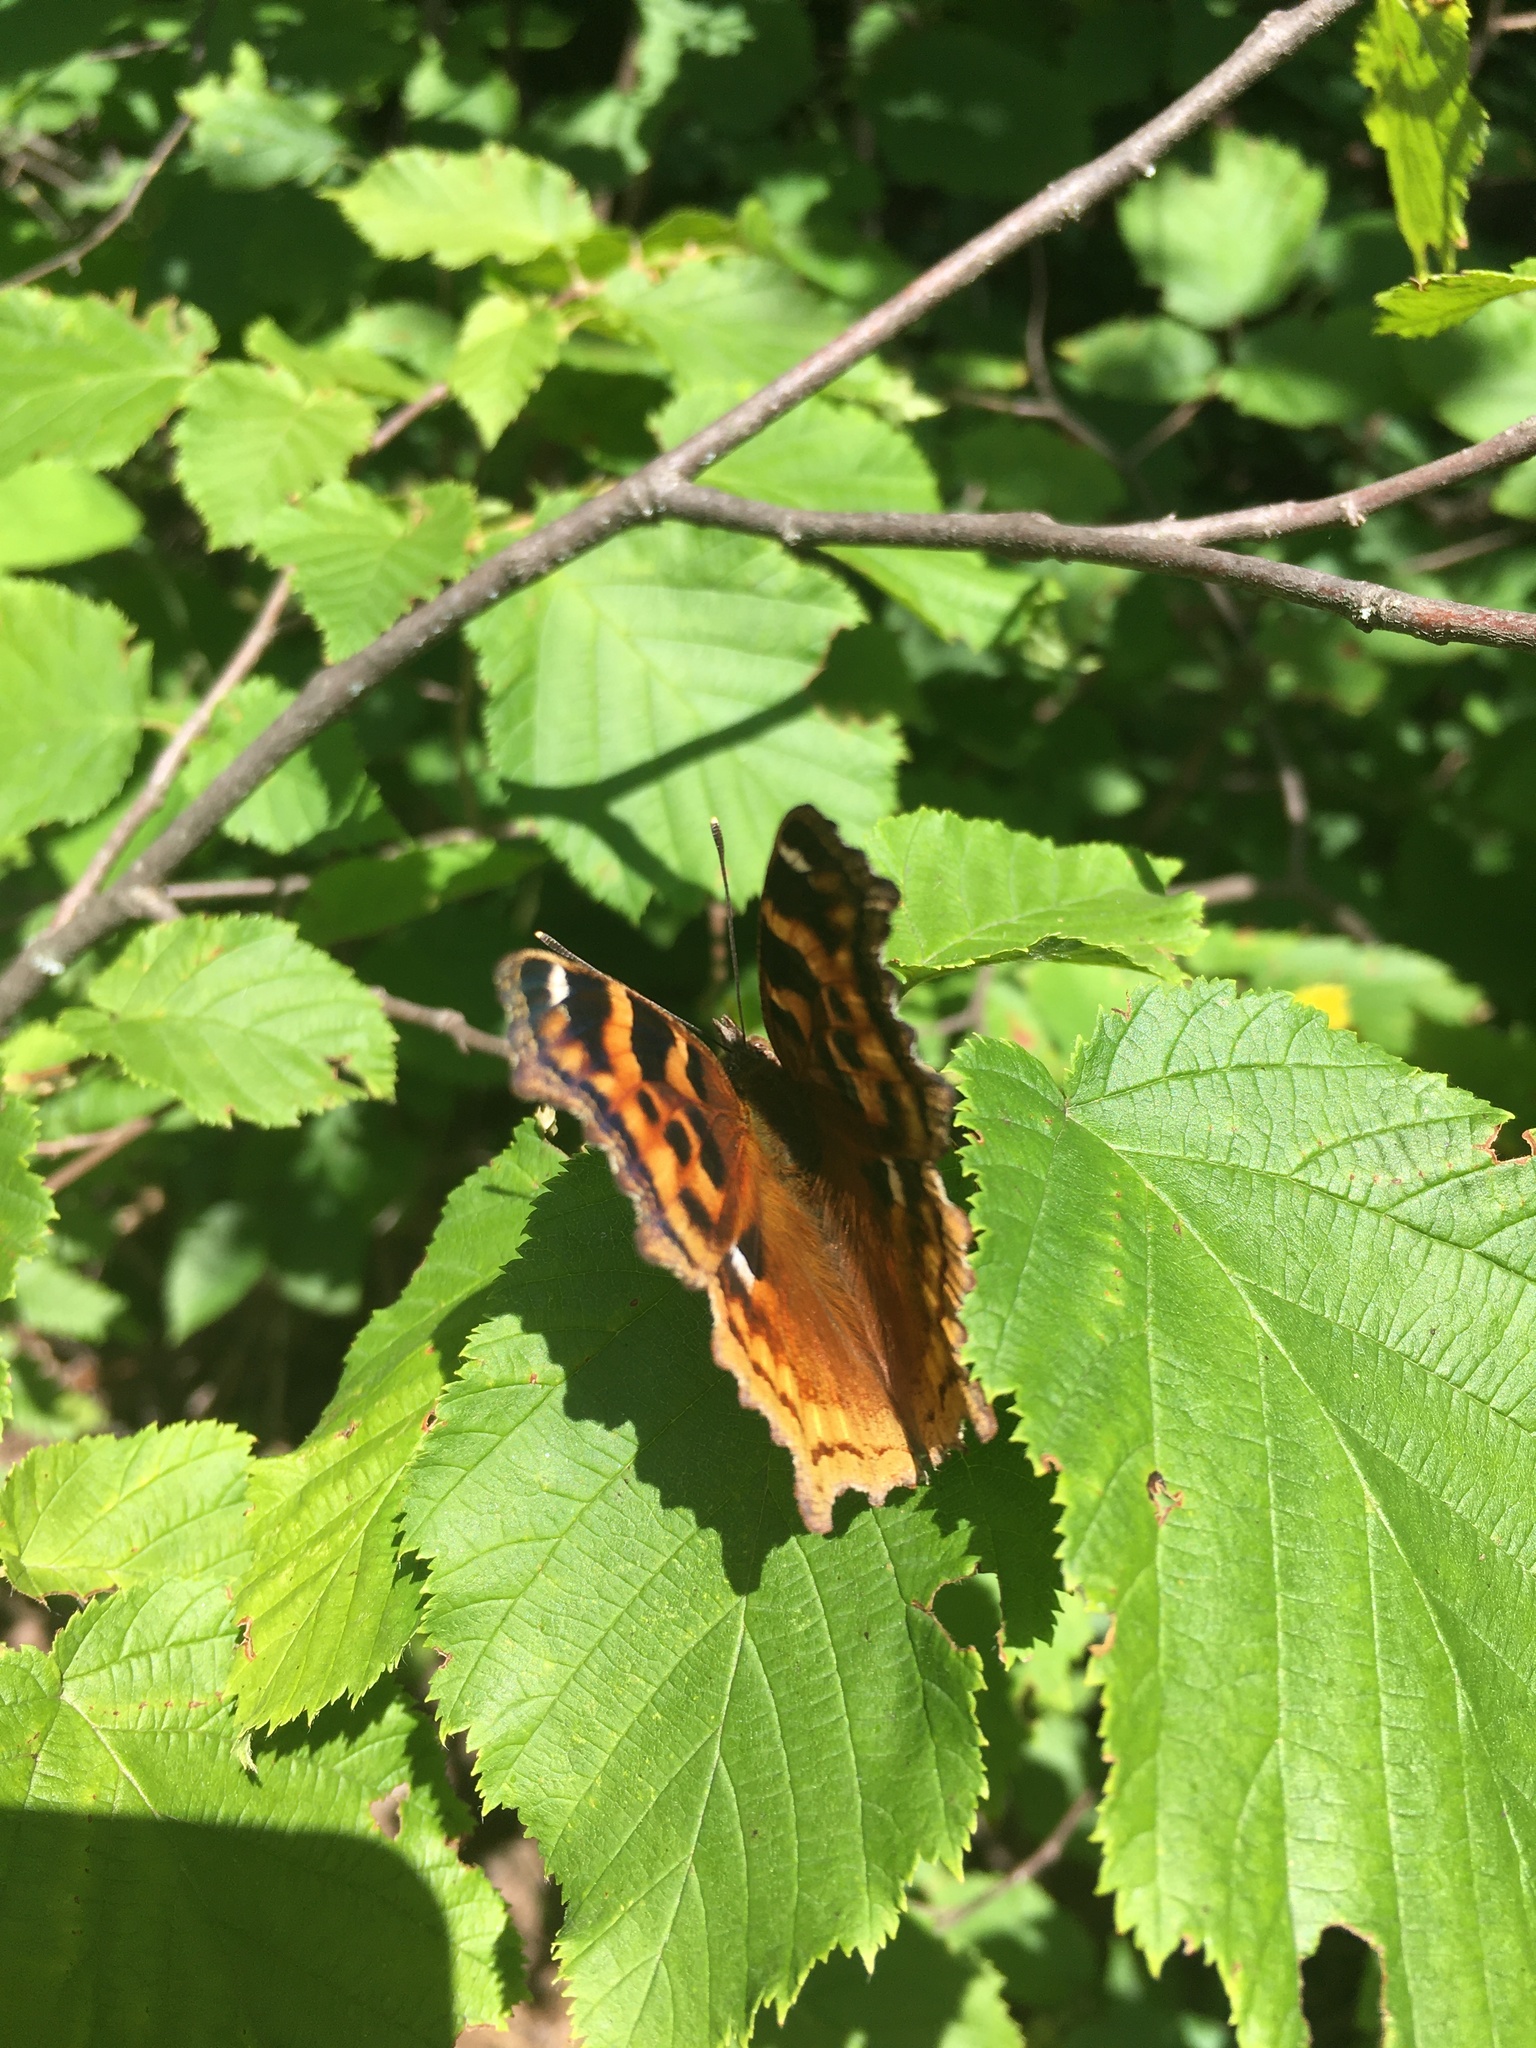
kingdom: Animalia
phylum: Arthropoda
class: Insecta
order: Lepidoptera
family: Nymphalidae
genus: Polygonia
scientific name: Polygonia vaualbum
